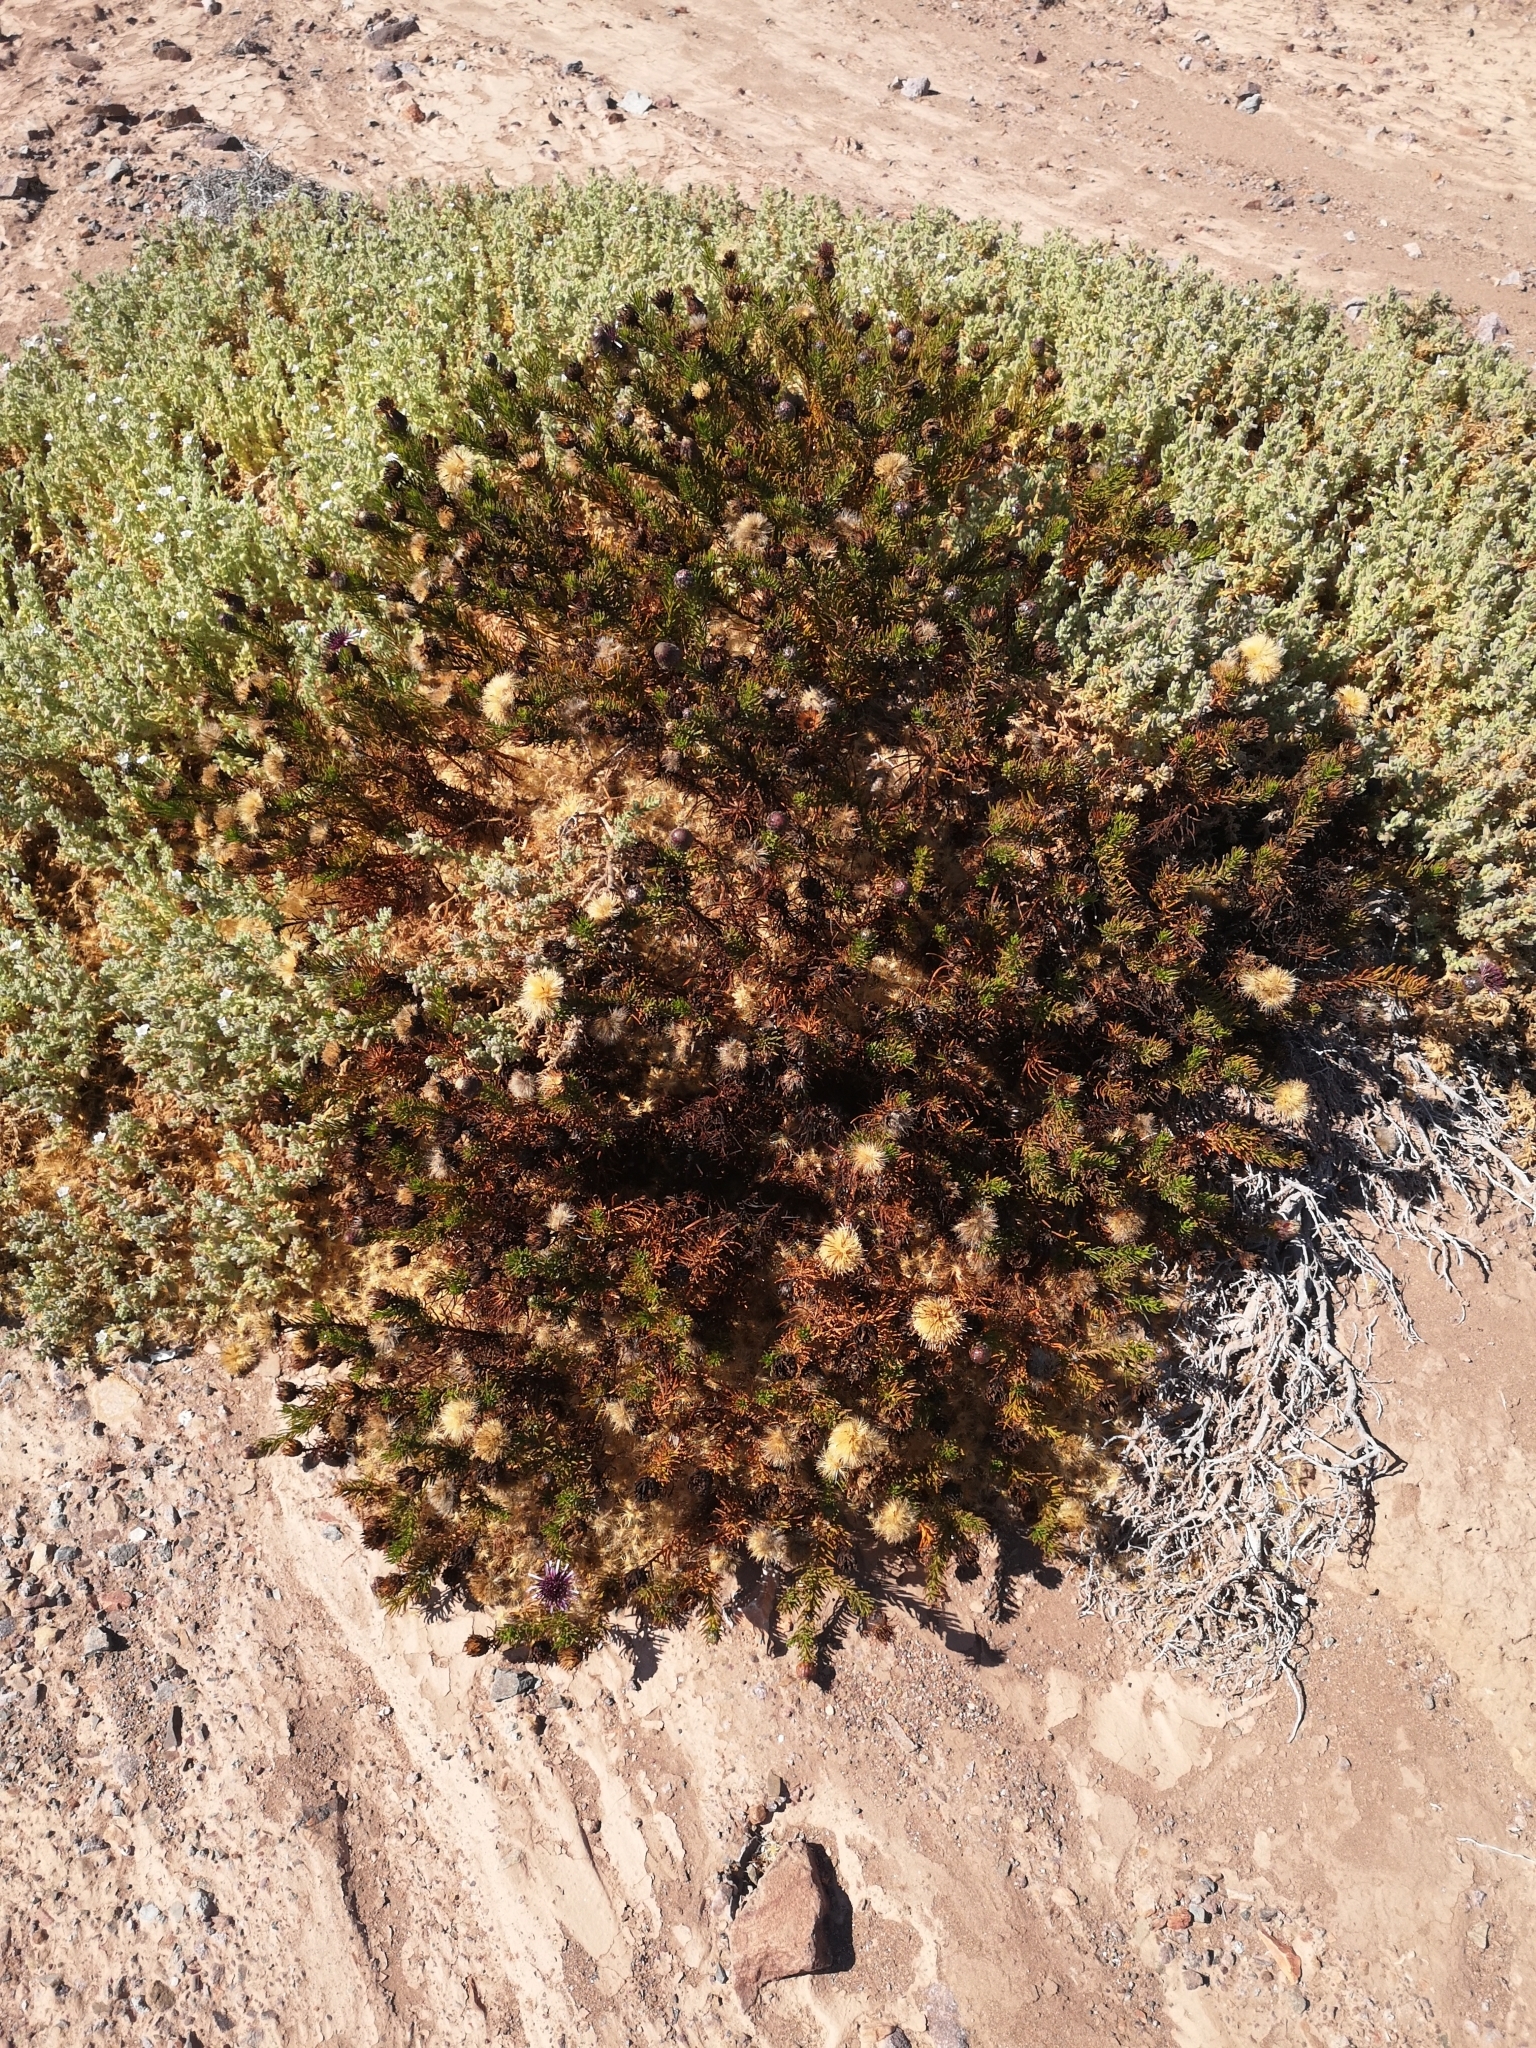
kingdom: Plantae
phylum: Tracheophyta
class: Magnoliopsida
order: Asterales
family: Asteraceae
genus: Gypothamnium
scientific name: Gypothamnium pinifolium
